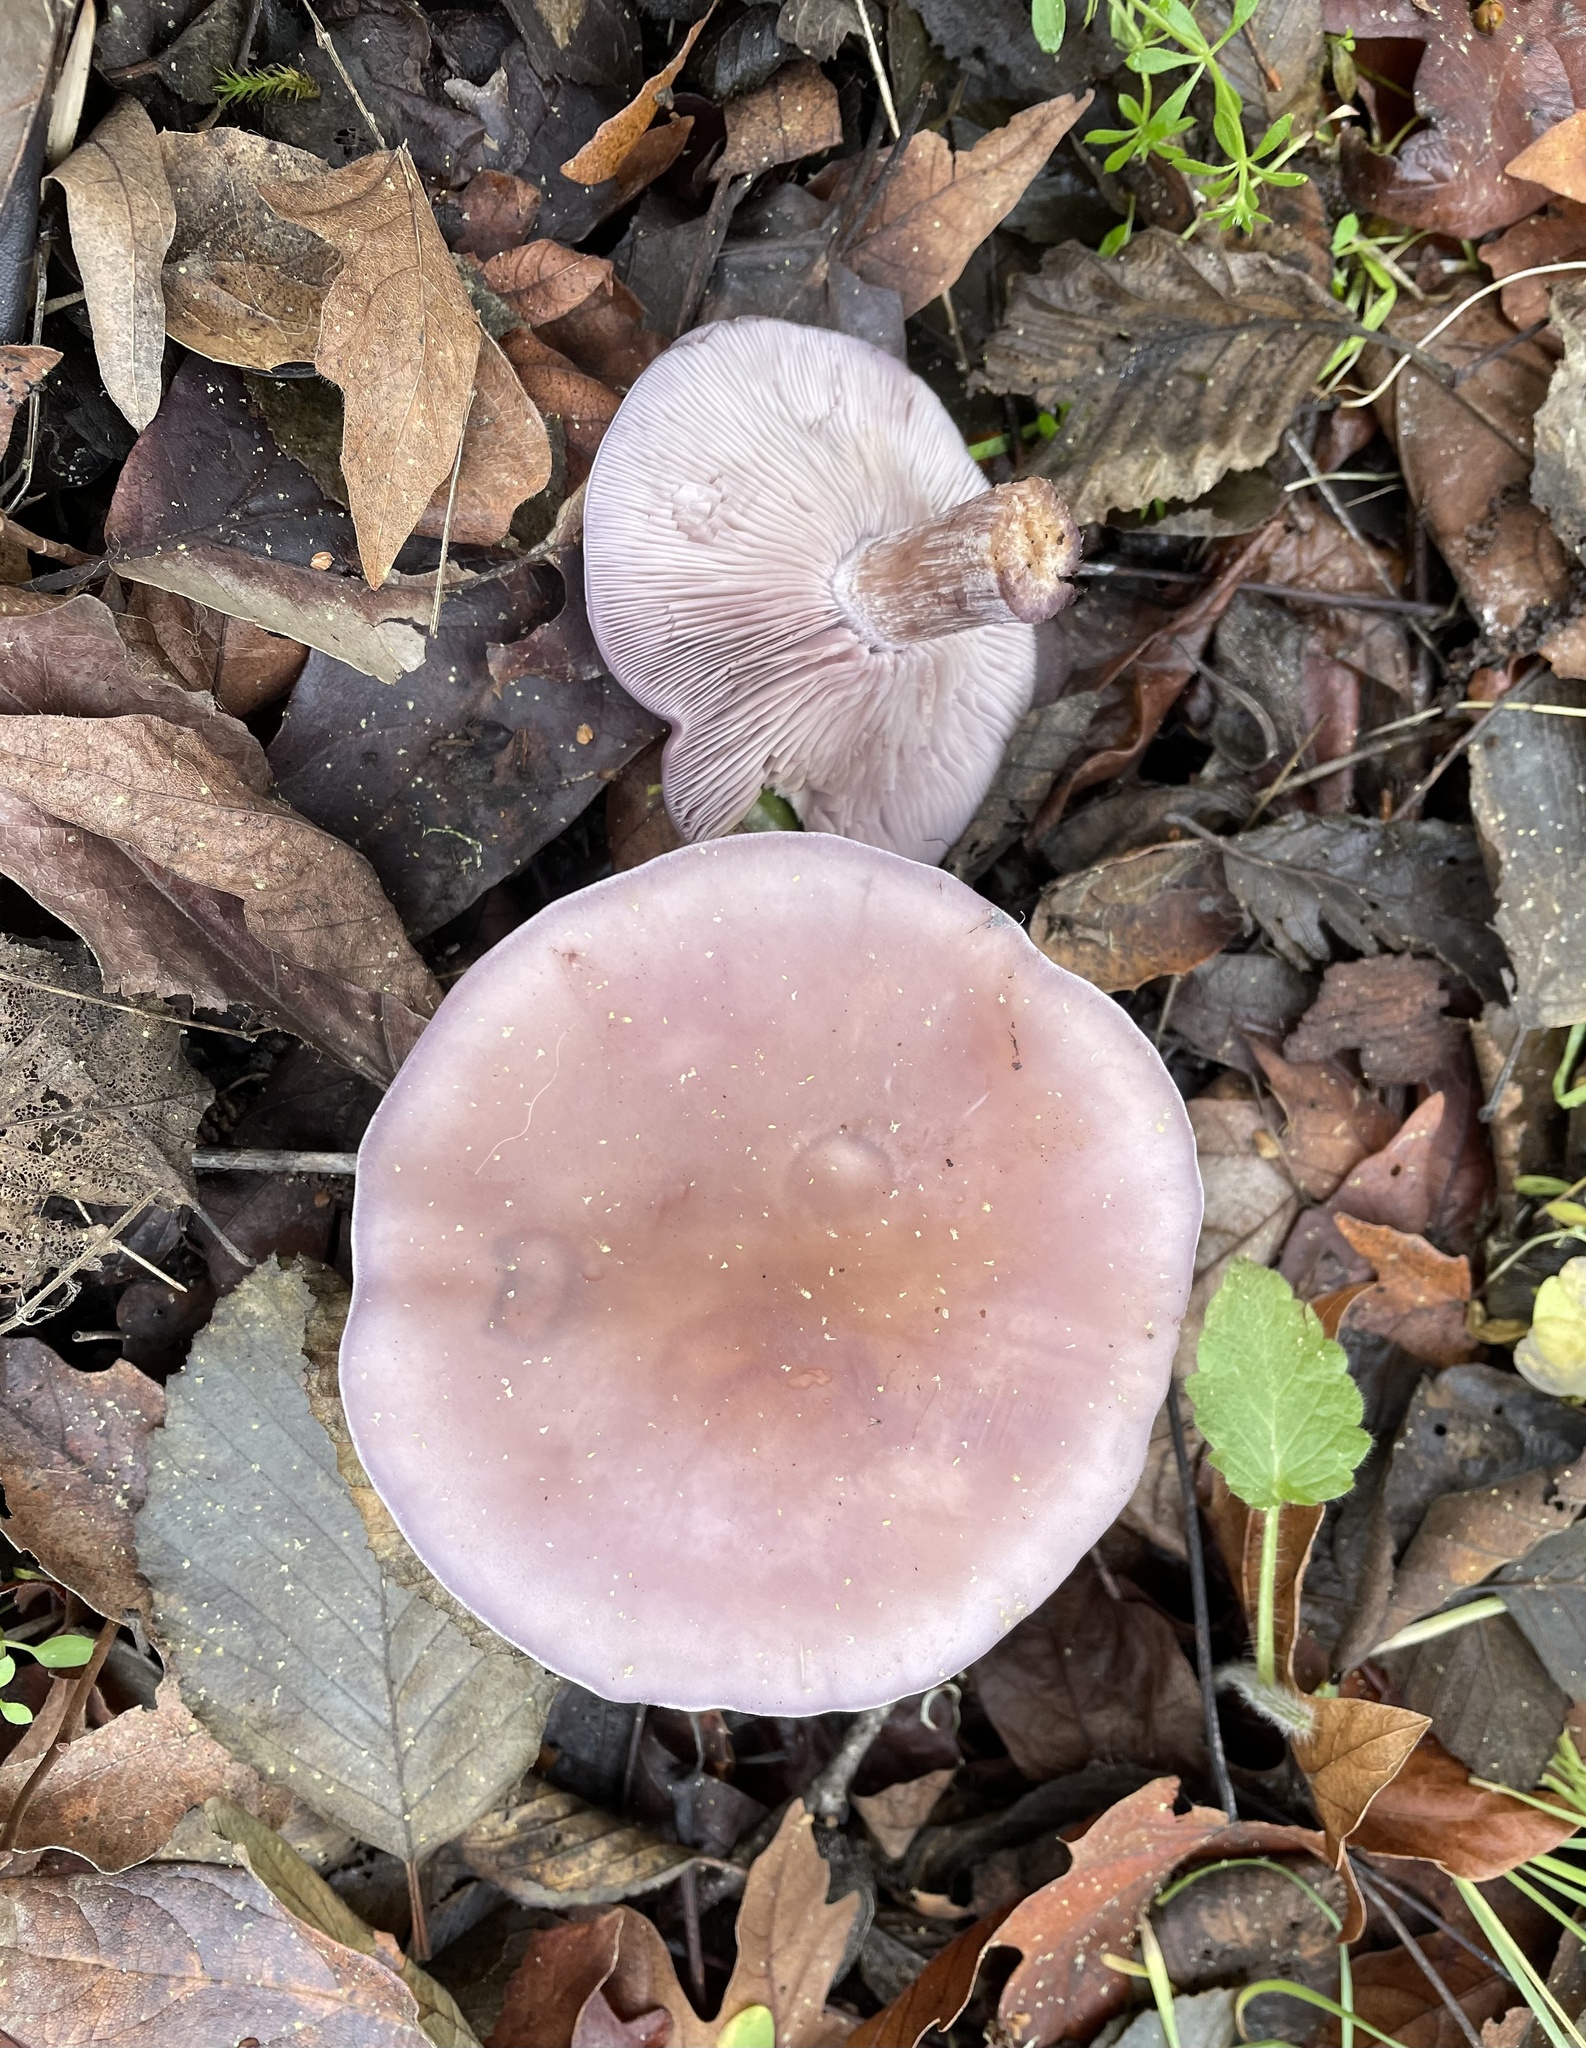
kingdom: Fungi
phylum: Basidiomycota
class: Agaricomycetes
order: Agaricales
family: Tricholomataceae
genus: Collybia
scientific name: Collybia
